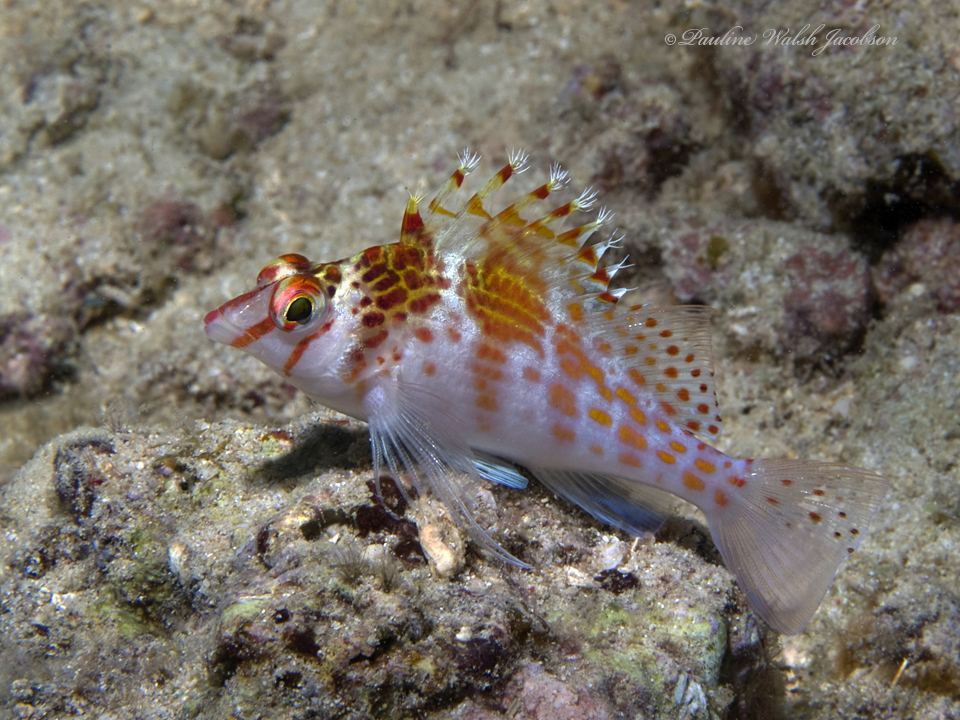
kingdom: Animalia
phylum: Chordata
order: Perciformes
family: Cirrhitidae
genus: Cirrhitichthys
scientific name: Cirrhitichthys falco
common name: Coral hawkfish
